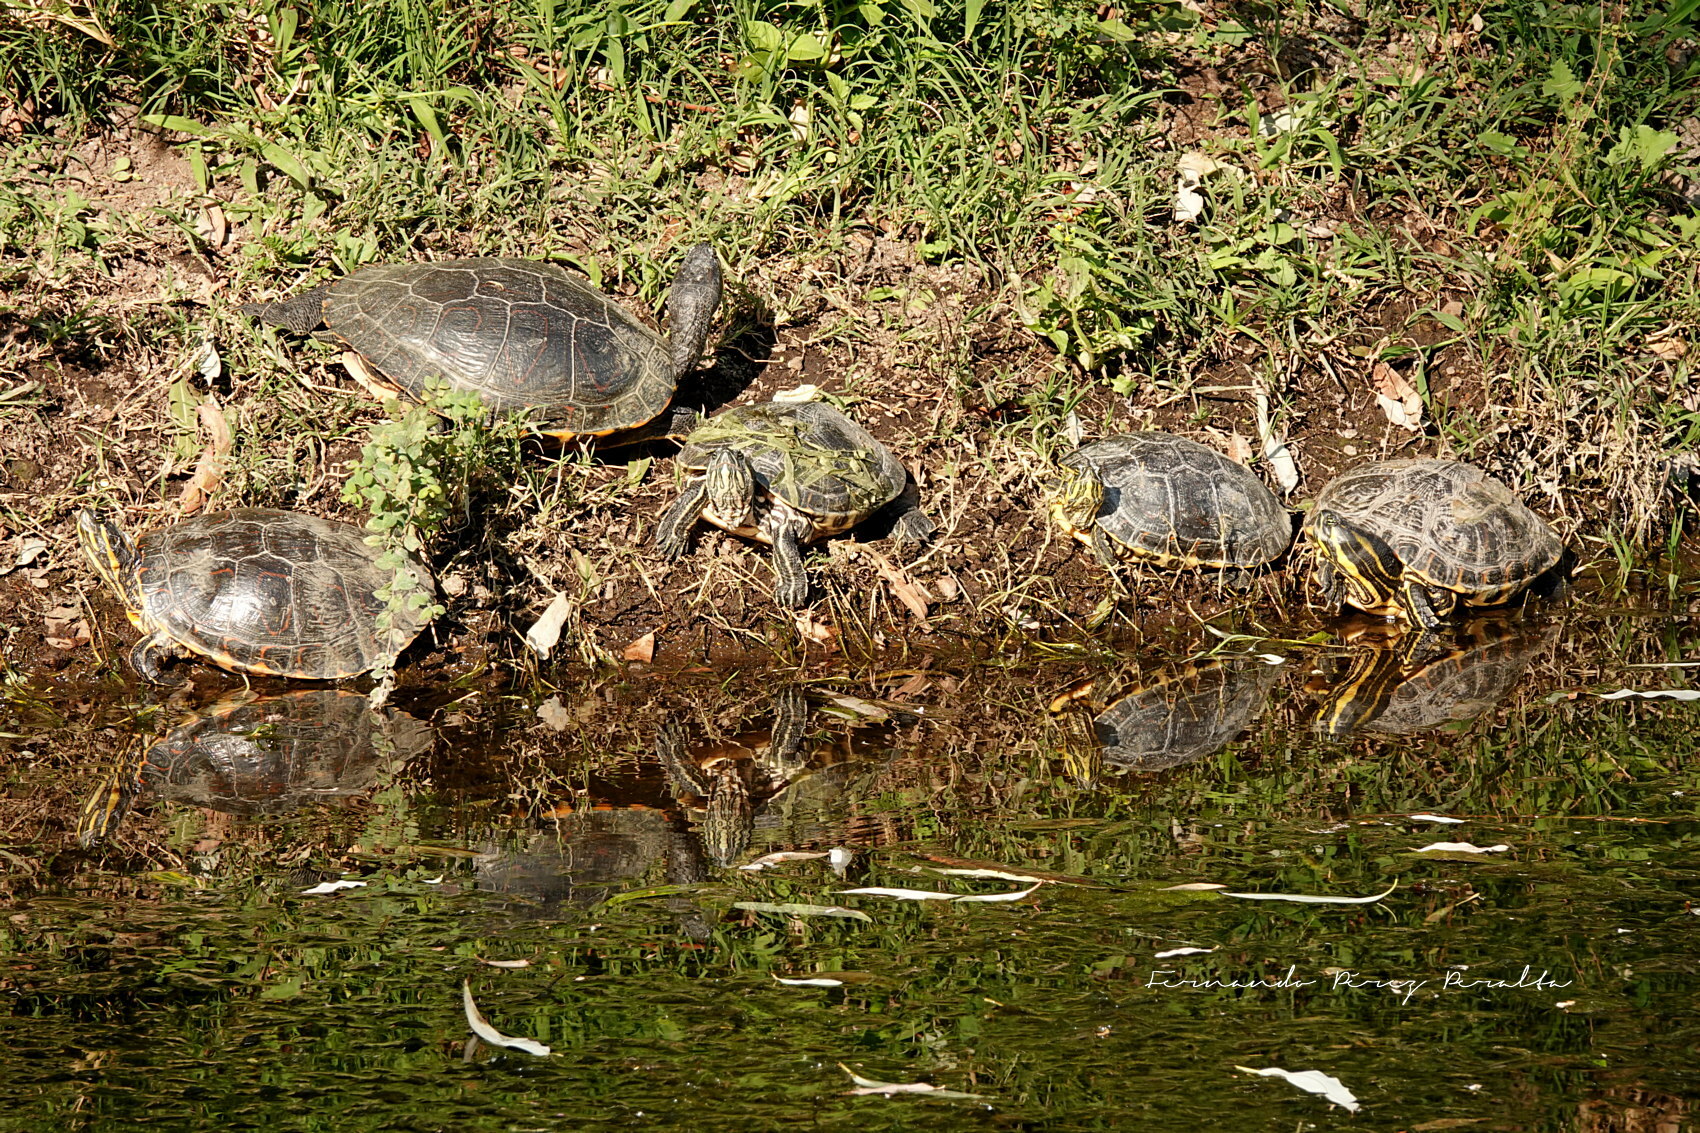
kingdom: Animalia
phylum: Chordata
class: Testudines
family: Emydidae
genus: Trachemys
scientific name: Trachemys venusta
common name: Mesoamerican slider
